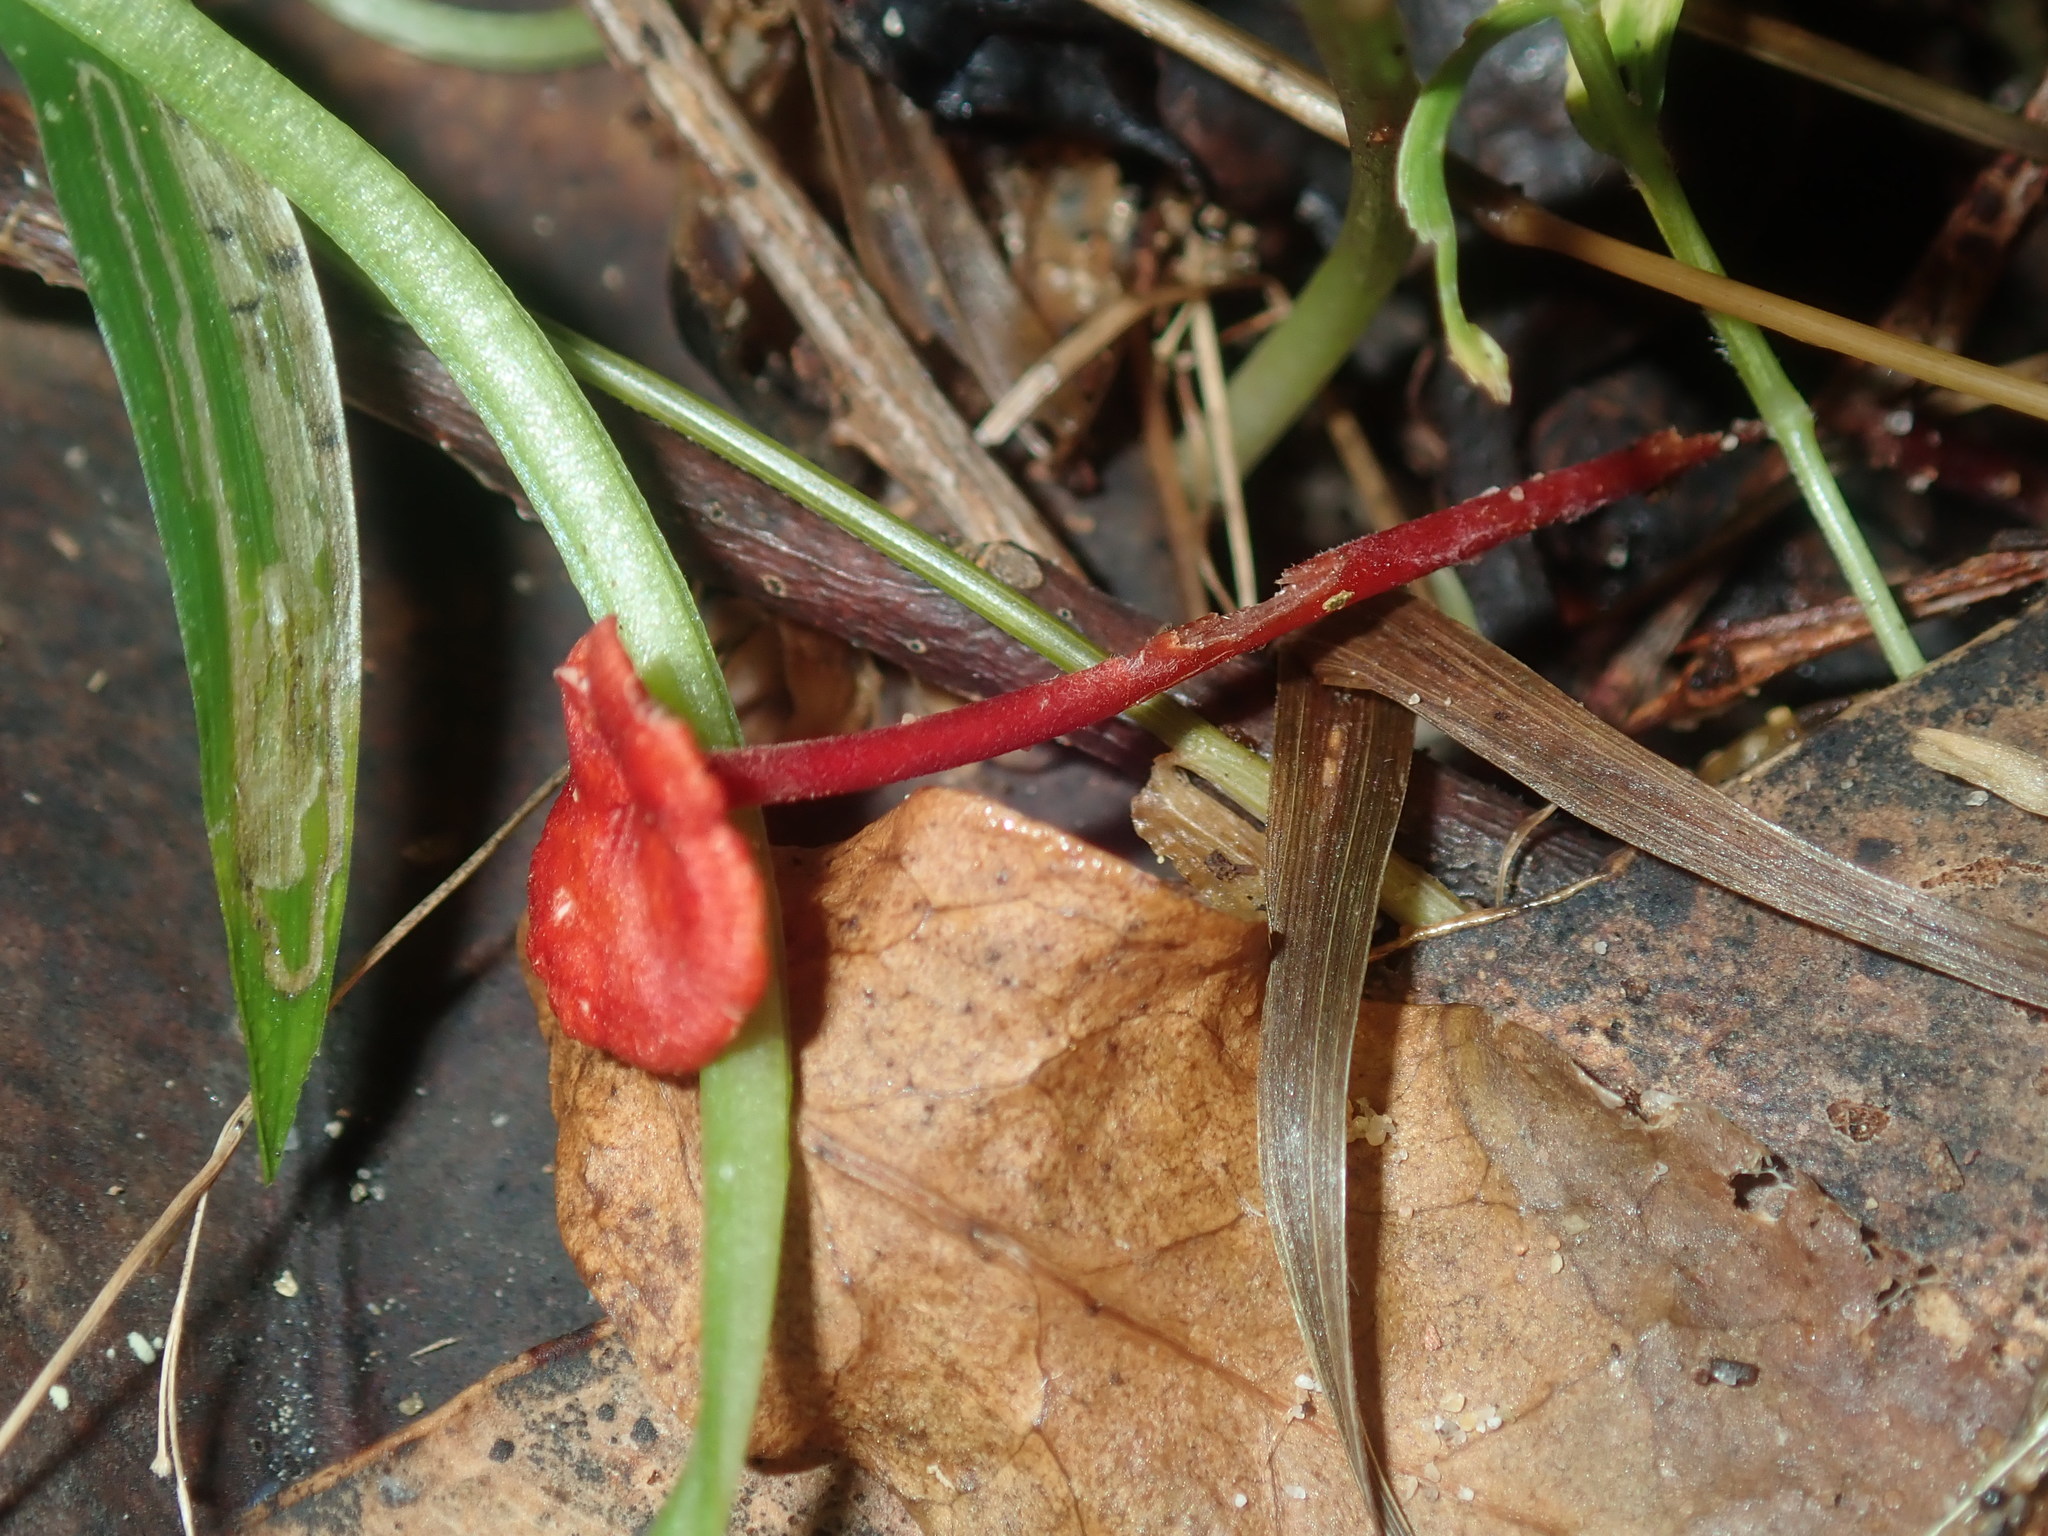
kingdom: Fungi
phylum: Basidiomycota
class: Agaricomycetes
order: Agaricales
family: Mycenaceae
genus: Cruentomycena
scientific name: Cruentomycena viscidocruenta
